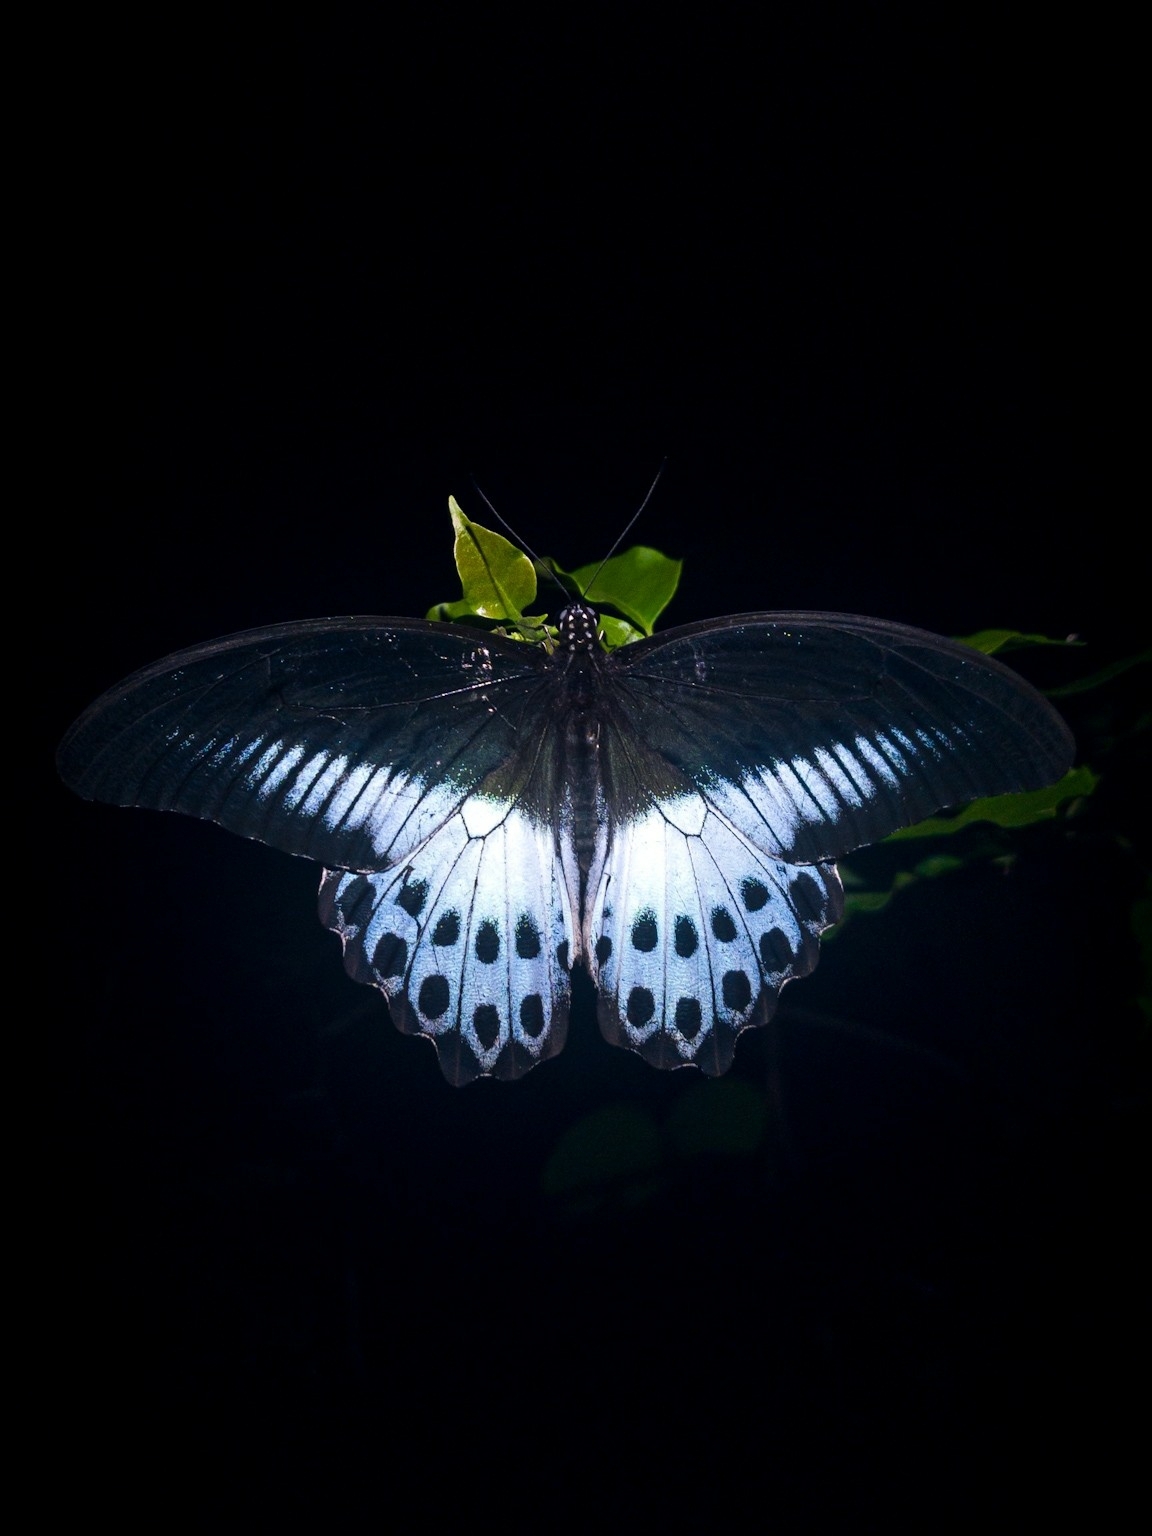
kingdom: Animalia
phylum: Arthropoda
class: Insecta
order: Lepidoptera
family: Papilionidae
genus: Papilio
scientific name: Papilio memnon
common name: Great mormon
